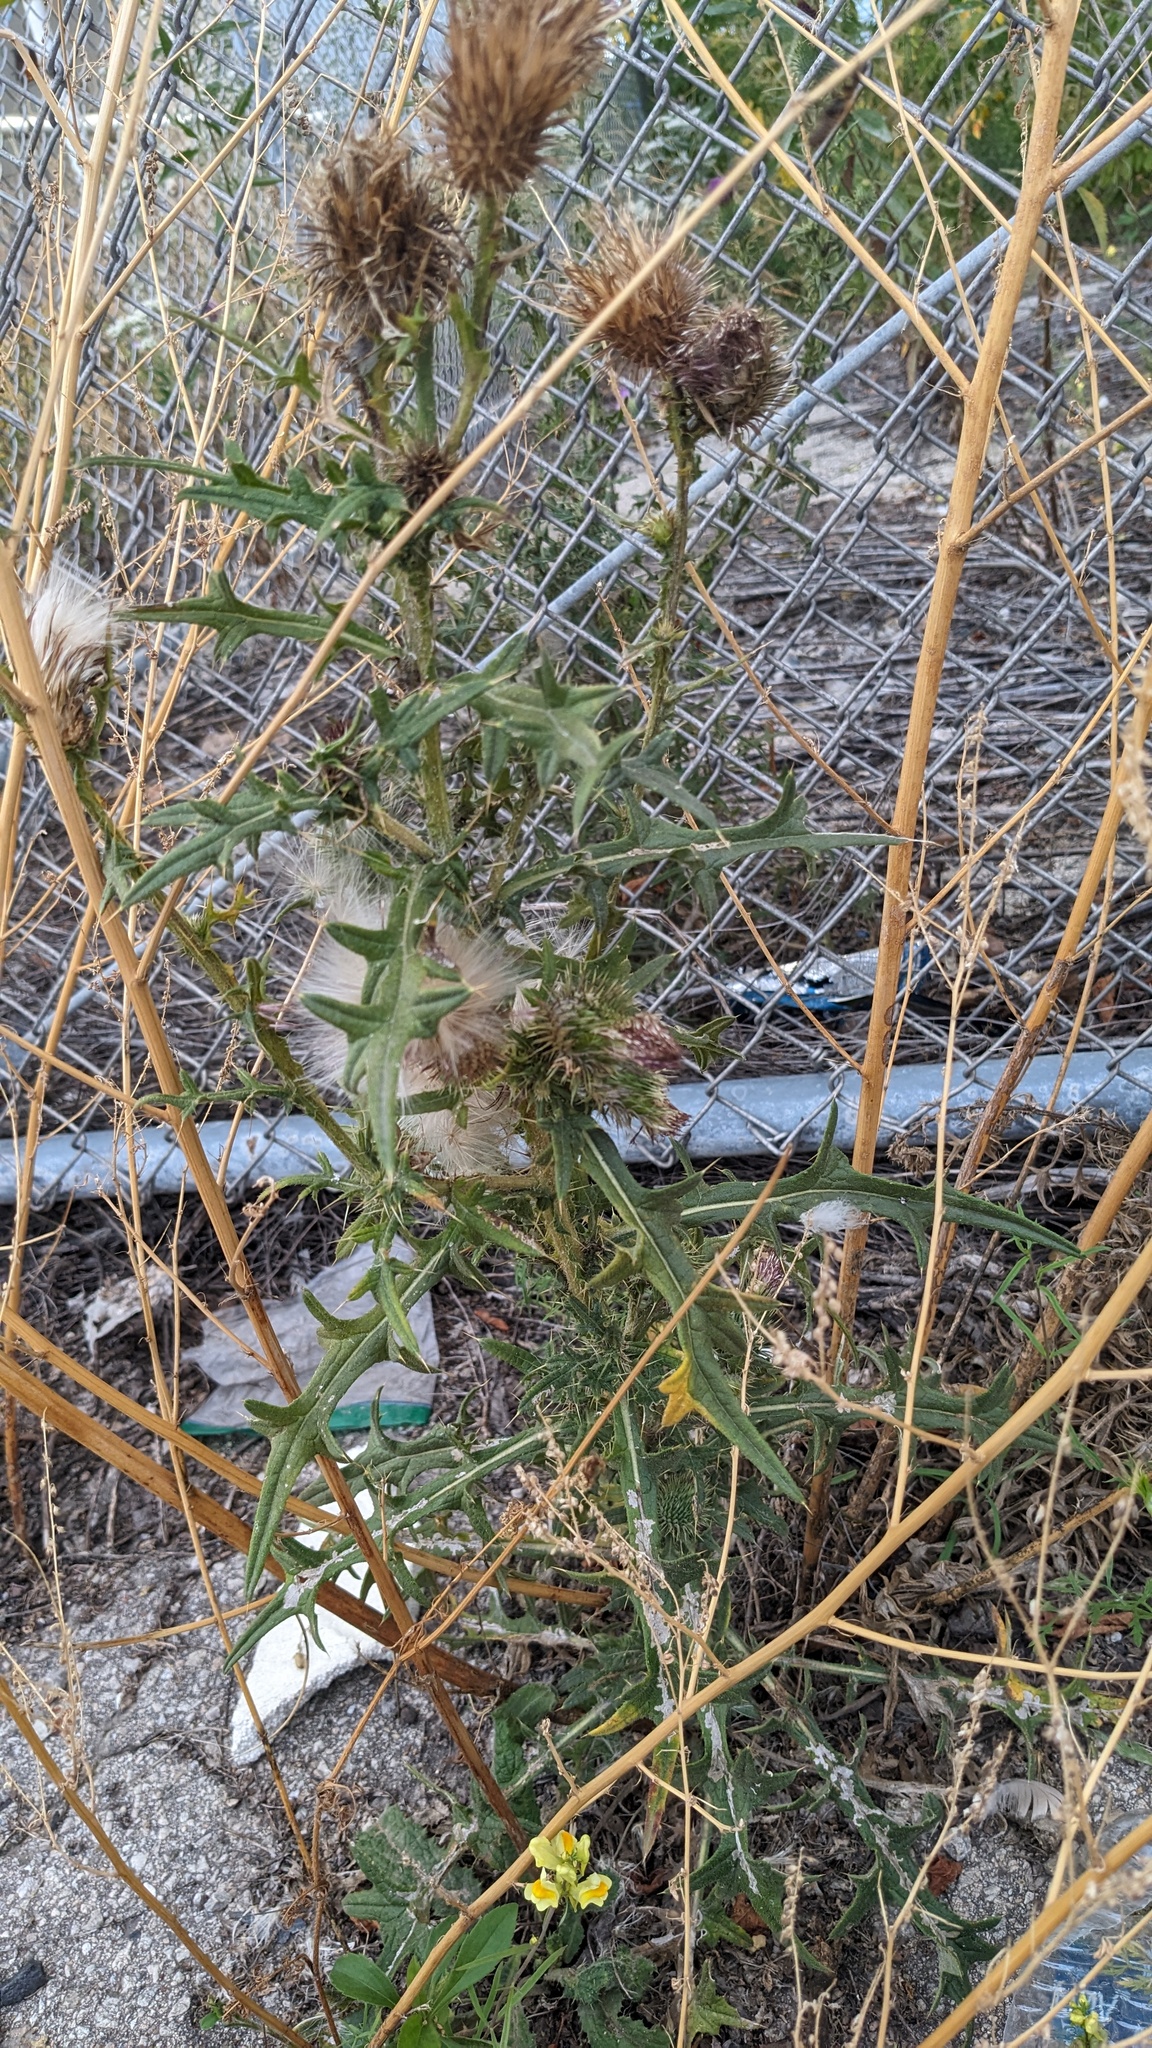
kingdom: Plantae
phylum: Tracheophyta
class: Magnoliopsida
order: Asterales
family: Asteraceae
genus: Cirsium
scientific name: Cirsium vulgare
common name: Bull thistle
